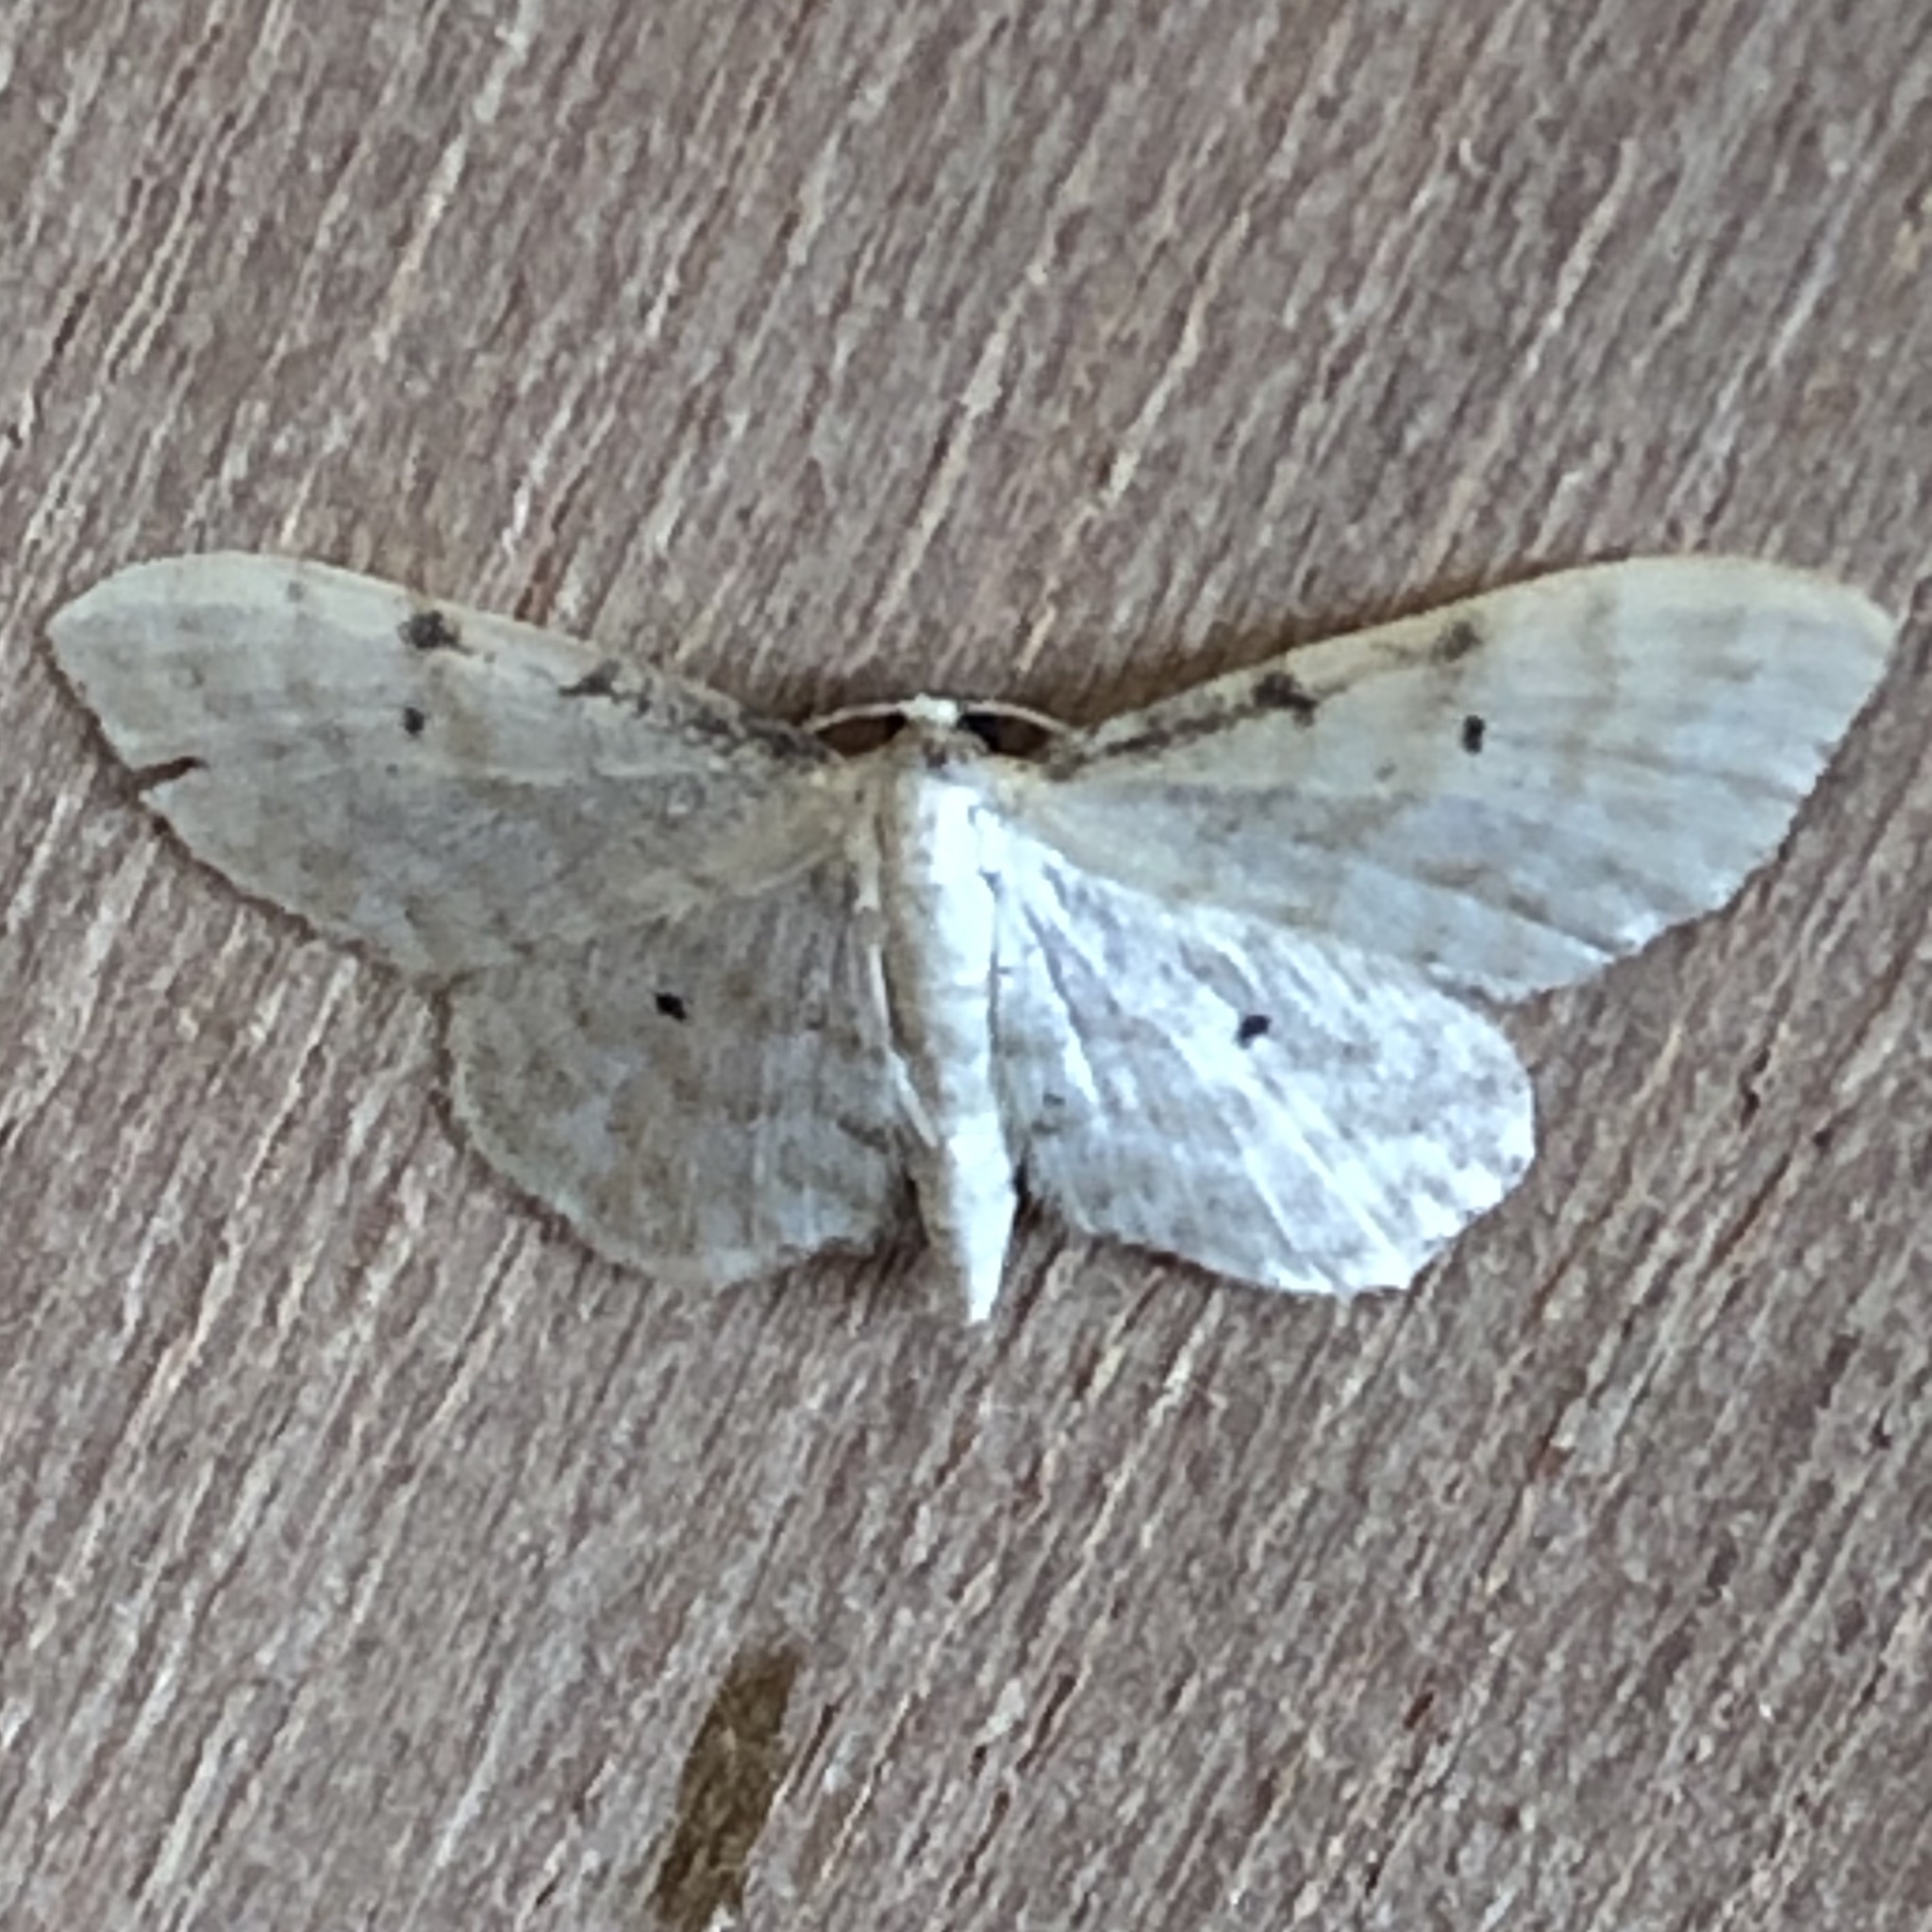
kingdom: Animalia
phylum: Arthropoda
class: Insecta
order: Lepidoptera
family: Geometridae
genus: Idaea
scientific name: Idaea fuscovenosa
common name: Dwarf cream wave
